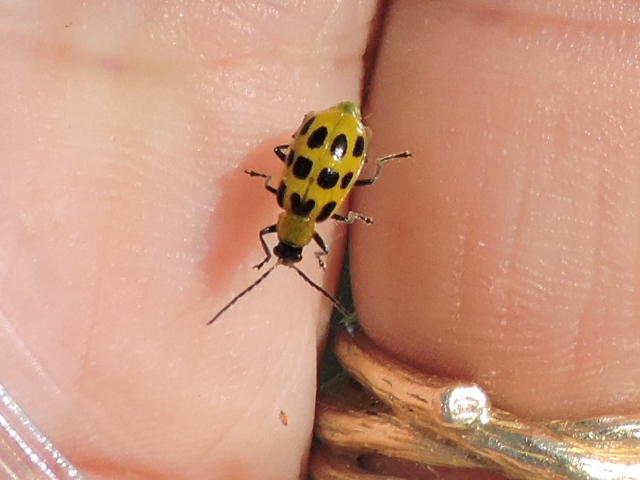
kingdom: Animalia
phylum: Arthropoda
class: Insecta
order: Coleoptera
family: Chrysomelidae
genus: Diabrotica
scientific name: Diabrotica undecimpunctata
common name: Spotted cucumber beetle
